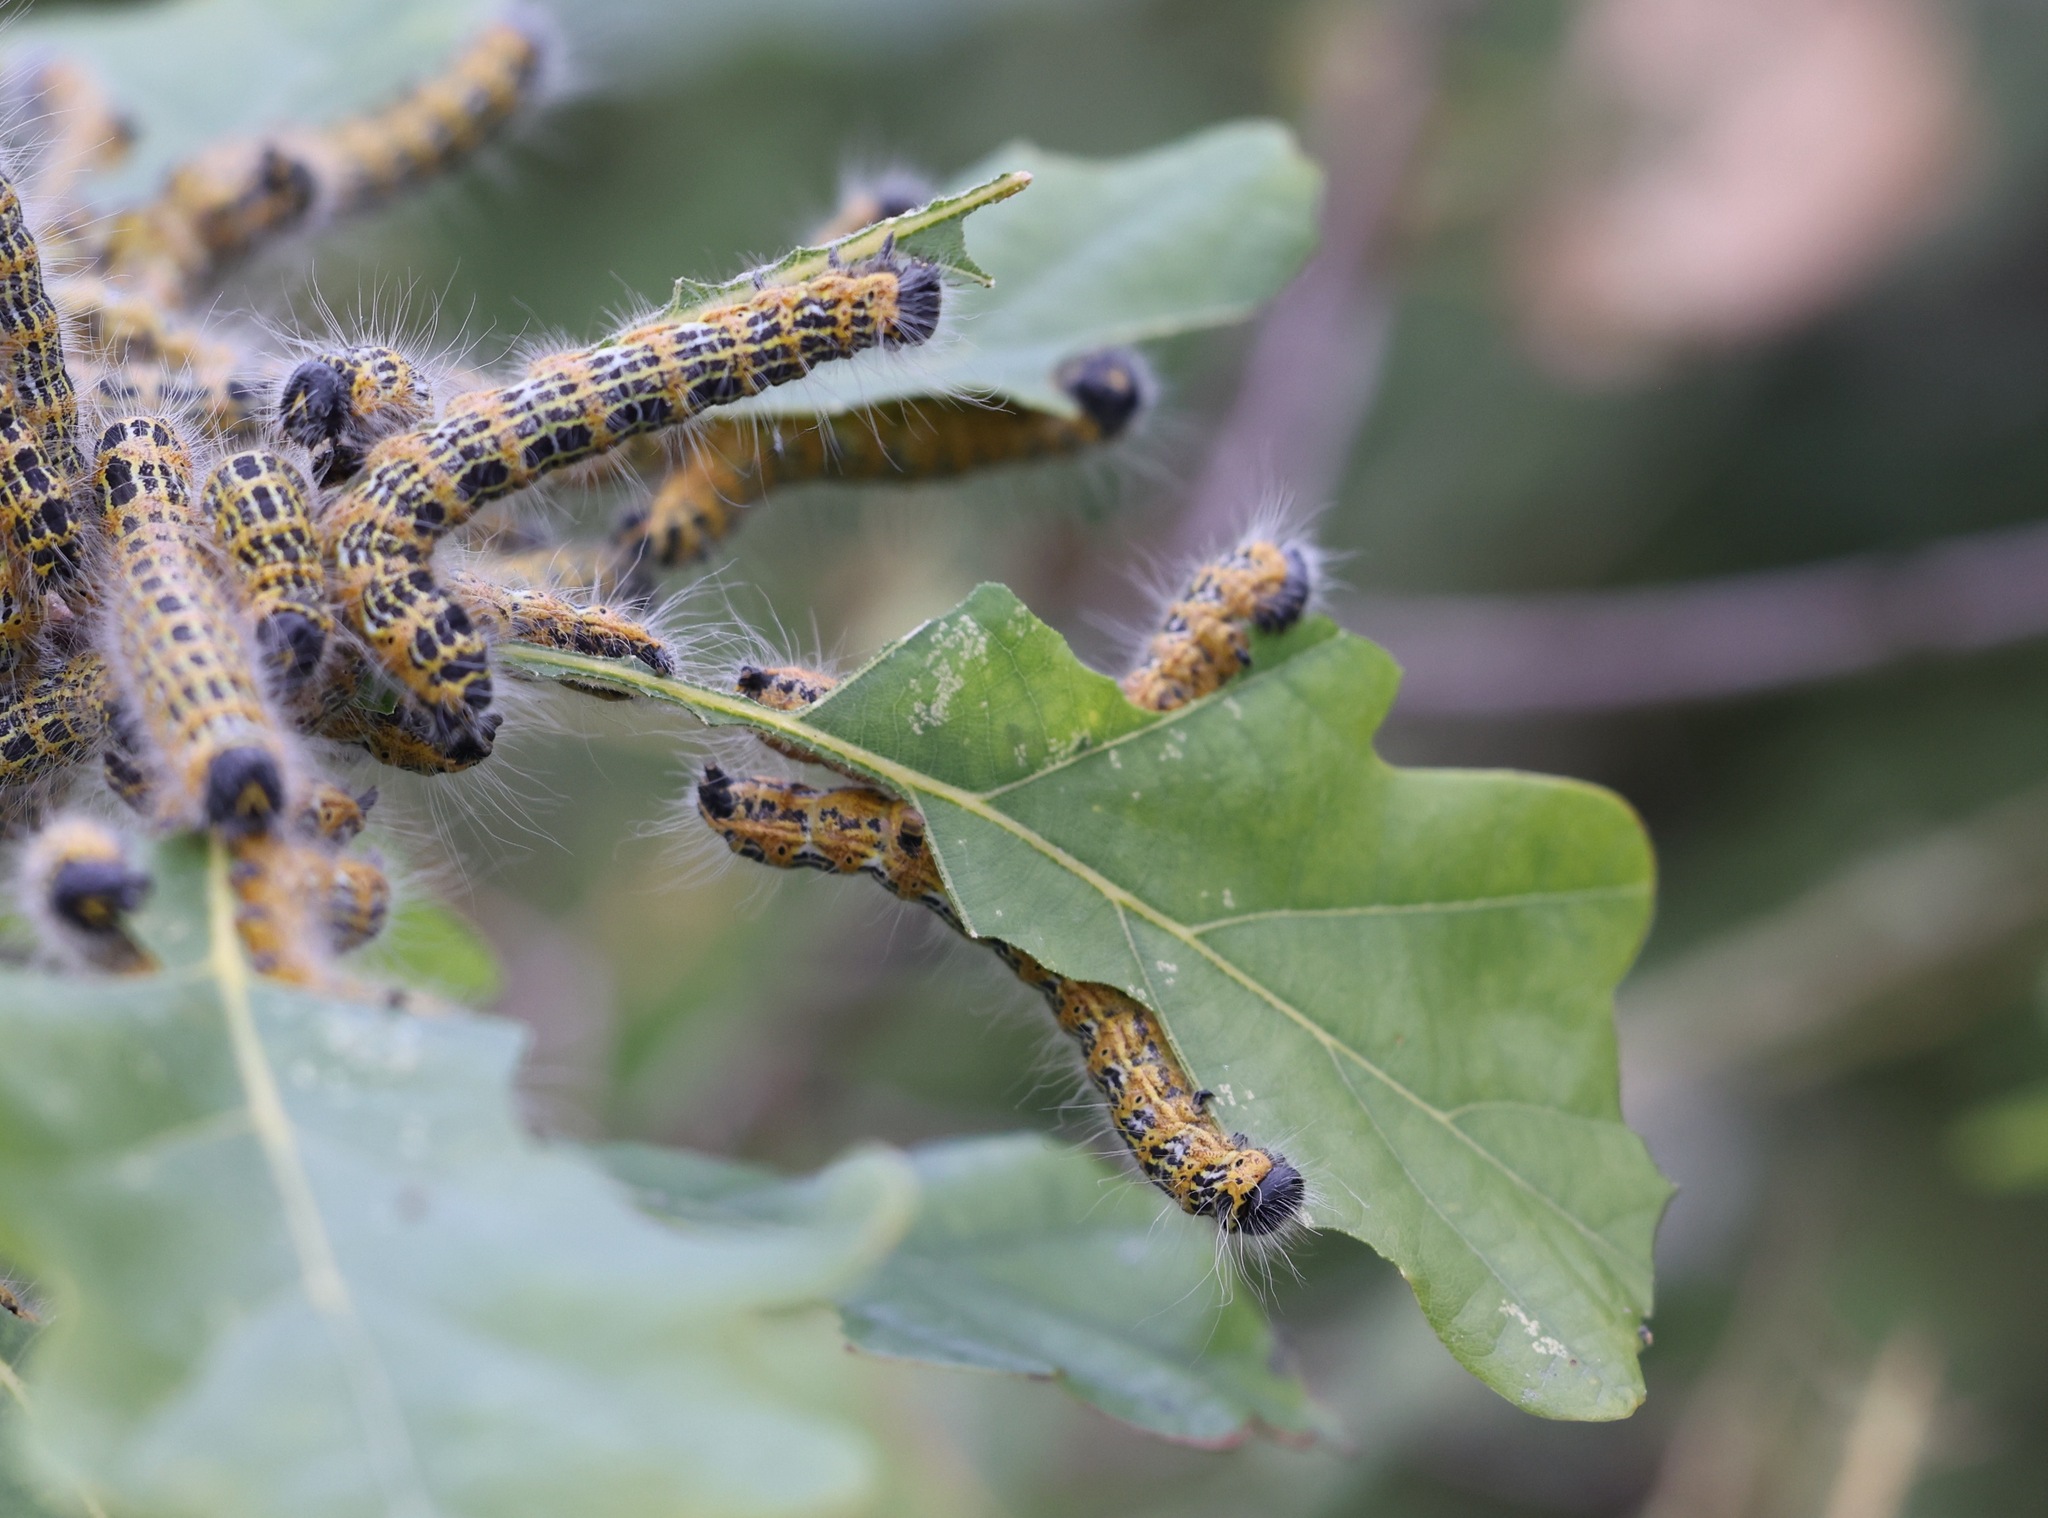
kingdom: Animalia
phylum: Arthropoda
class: Insecta
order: Lepidoptera
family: Notodontidae
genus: Phalera
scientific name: Phalera bucephala
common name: Buff-tip
